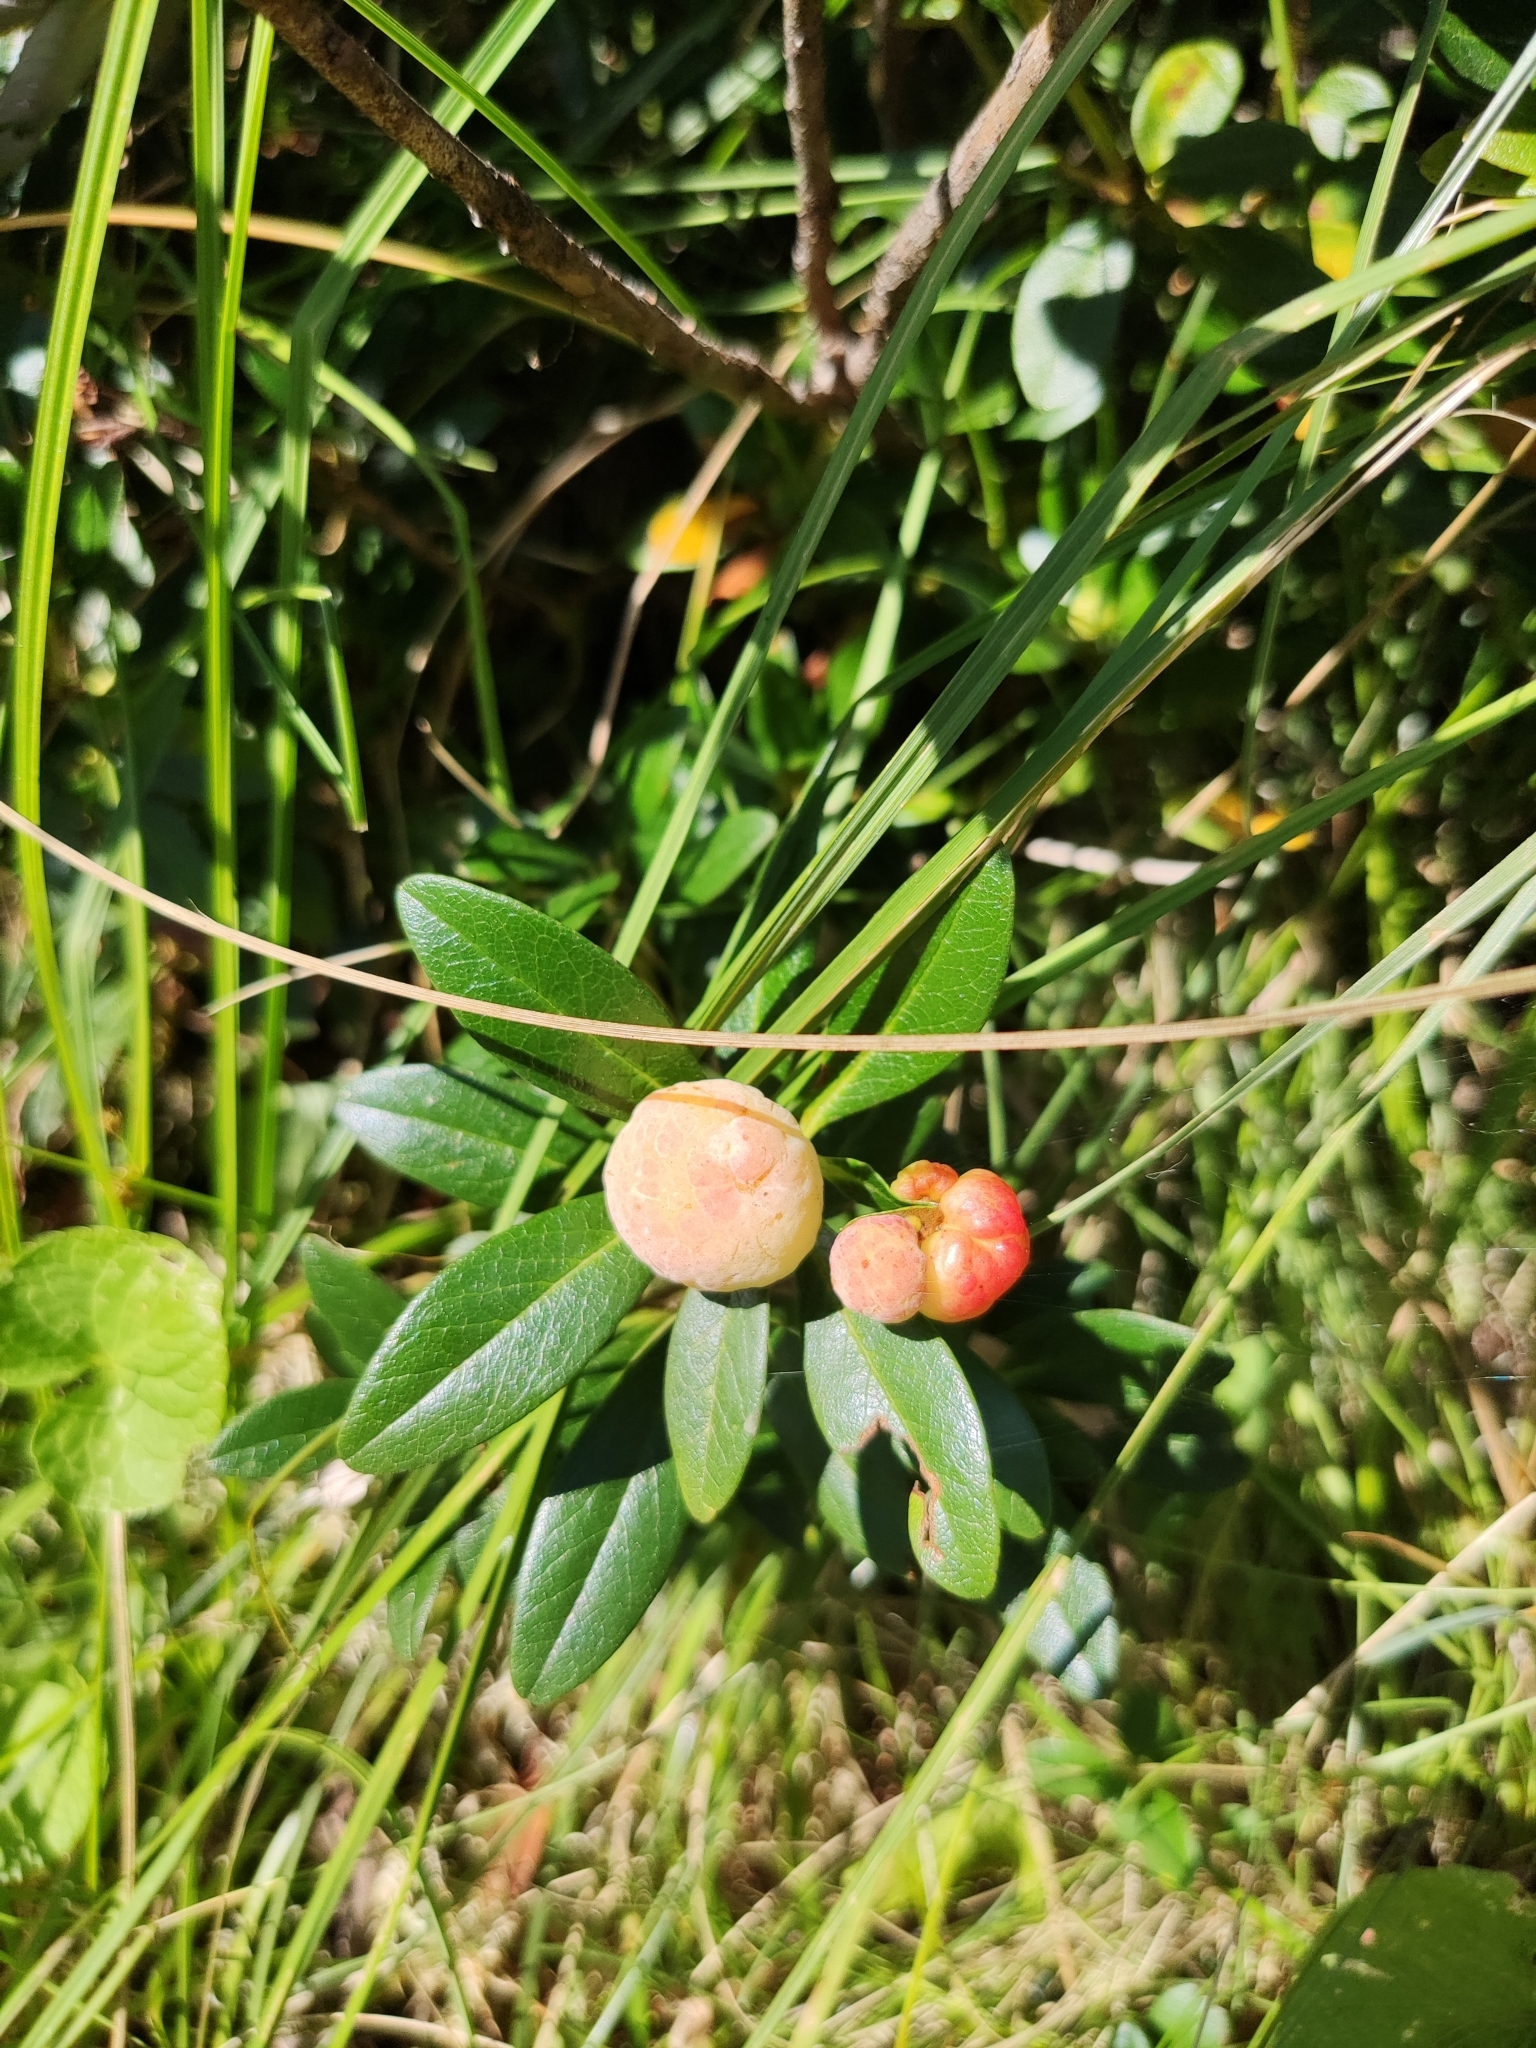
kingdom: Plantae
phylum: Tracheophyta
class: Magnoliopsida
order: Ericales
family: Ericaceae
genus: Rhododendron
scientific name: Rhododendron ferrugineum
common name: Alpenrose
